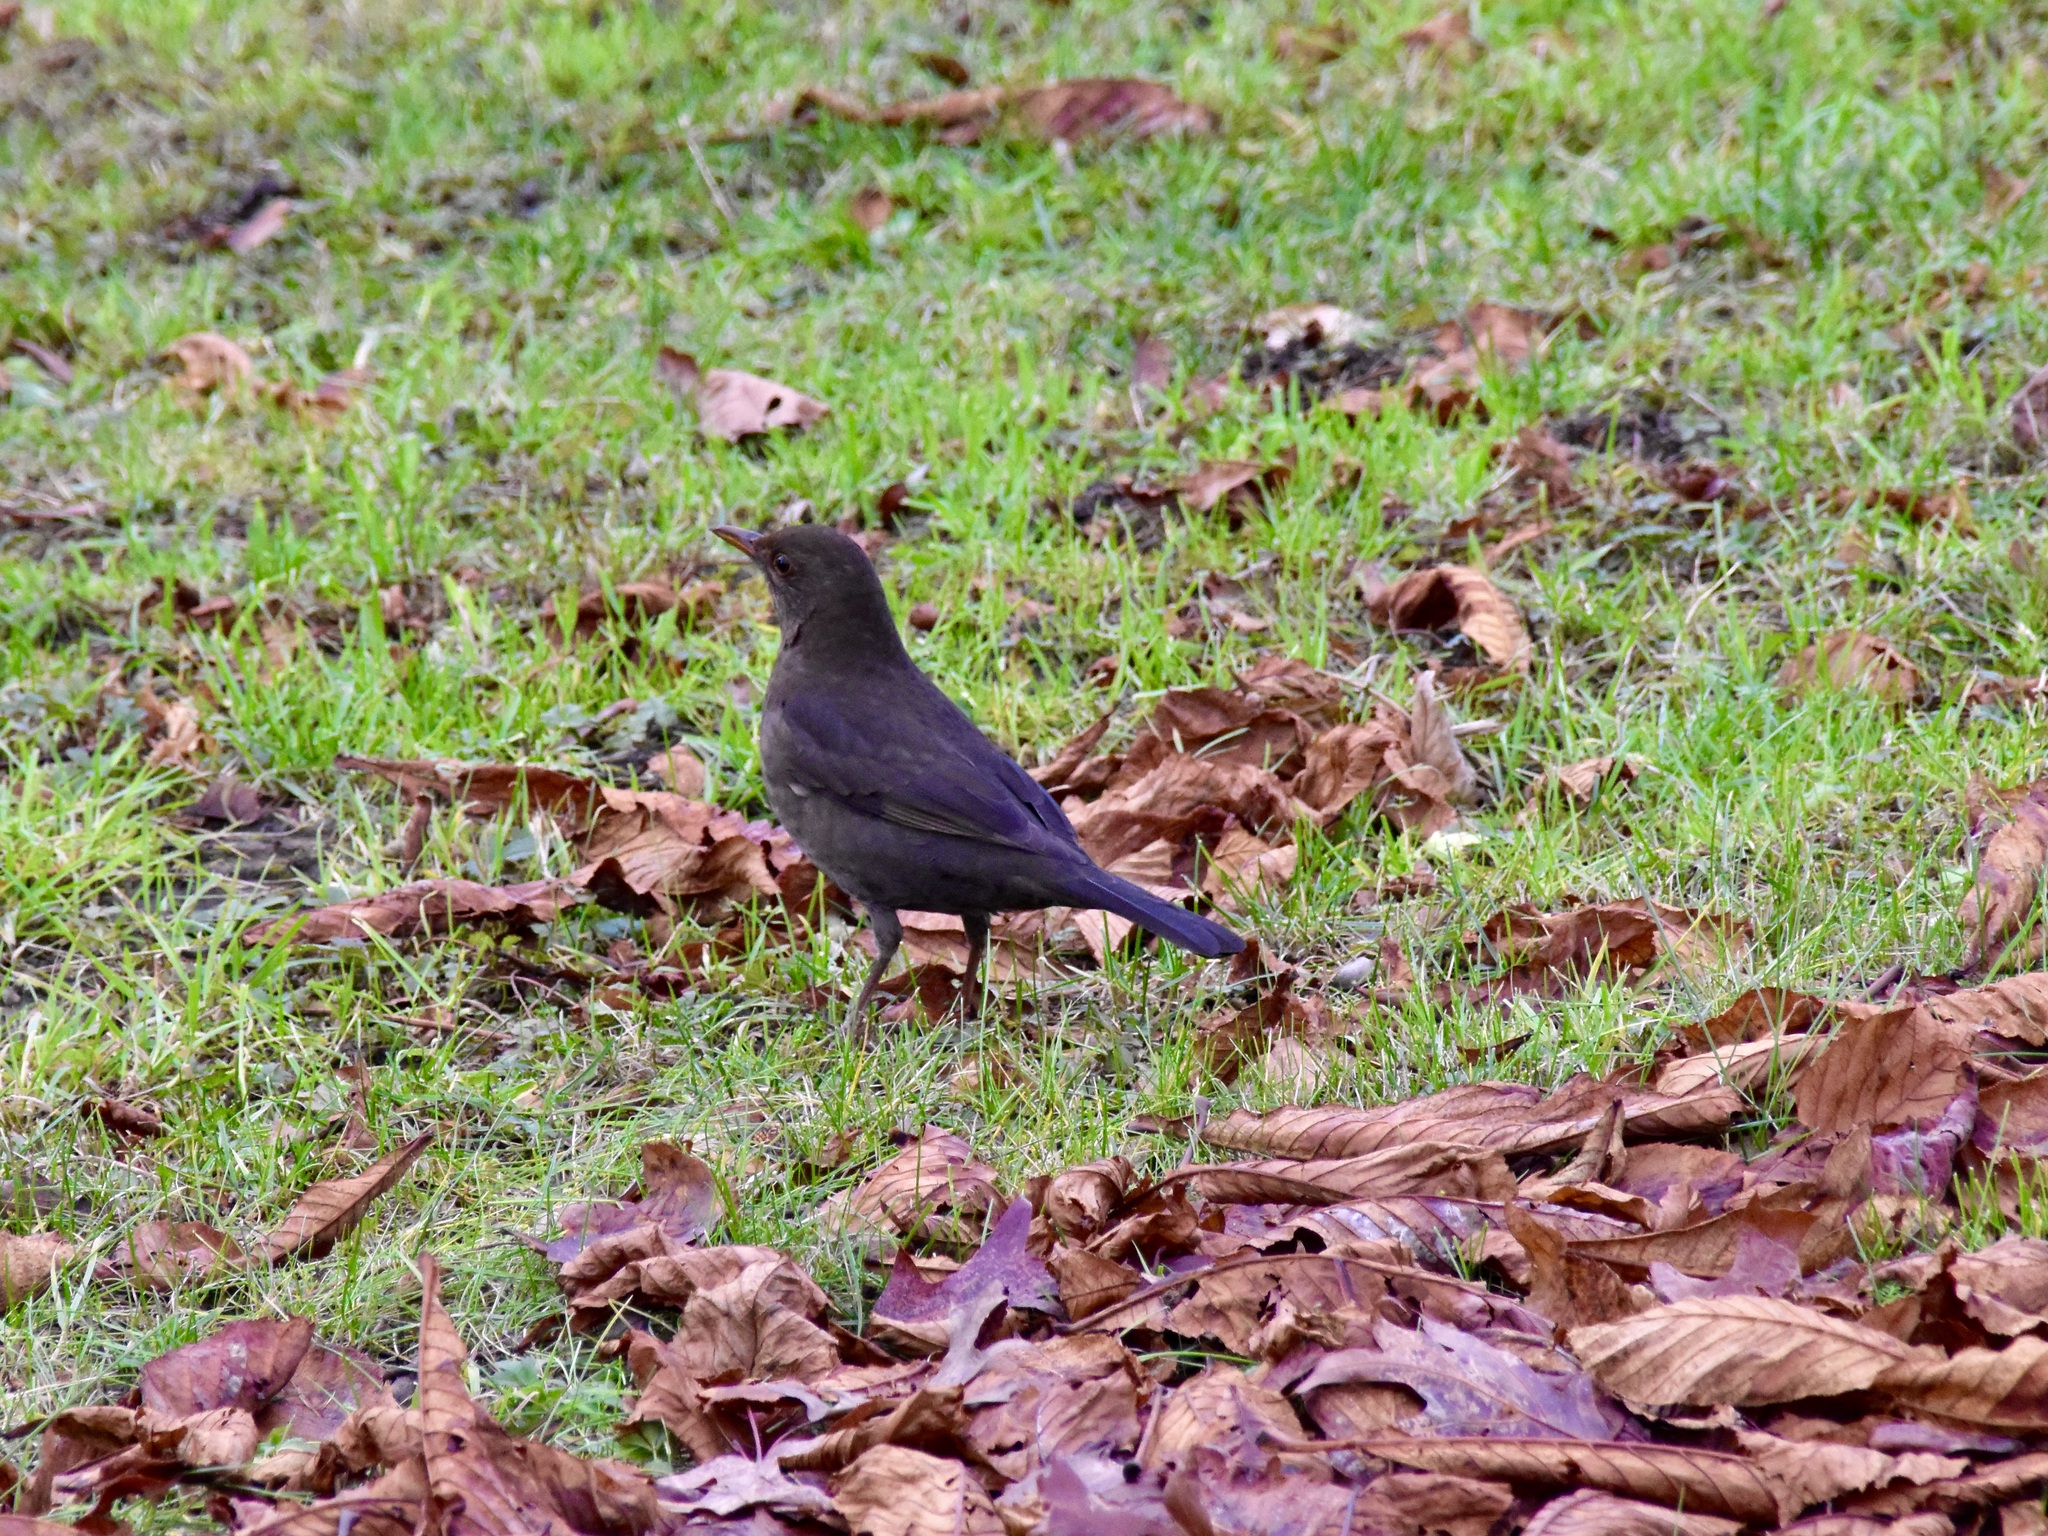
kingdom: Animalia
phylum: Chordata
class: Aves
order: Passeriformes
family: Turdidae
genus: Turdus
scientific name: Turdus merula
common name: Common blackbird
